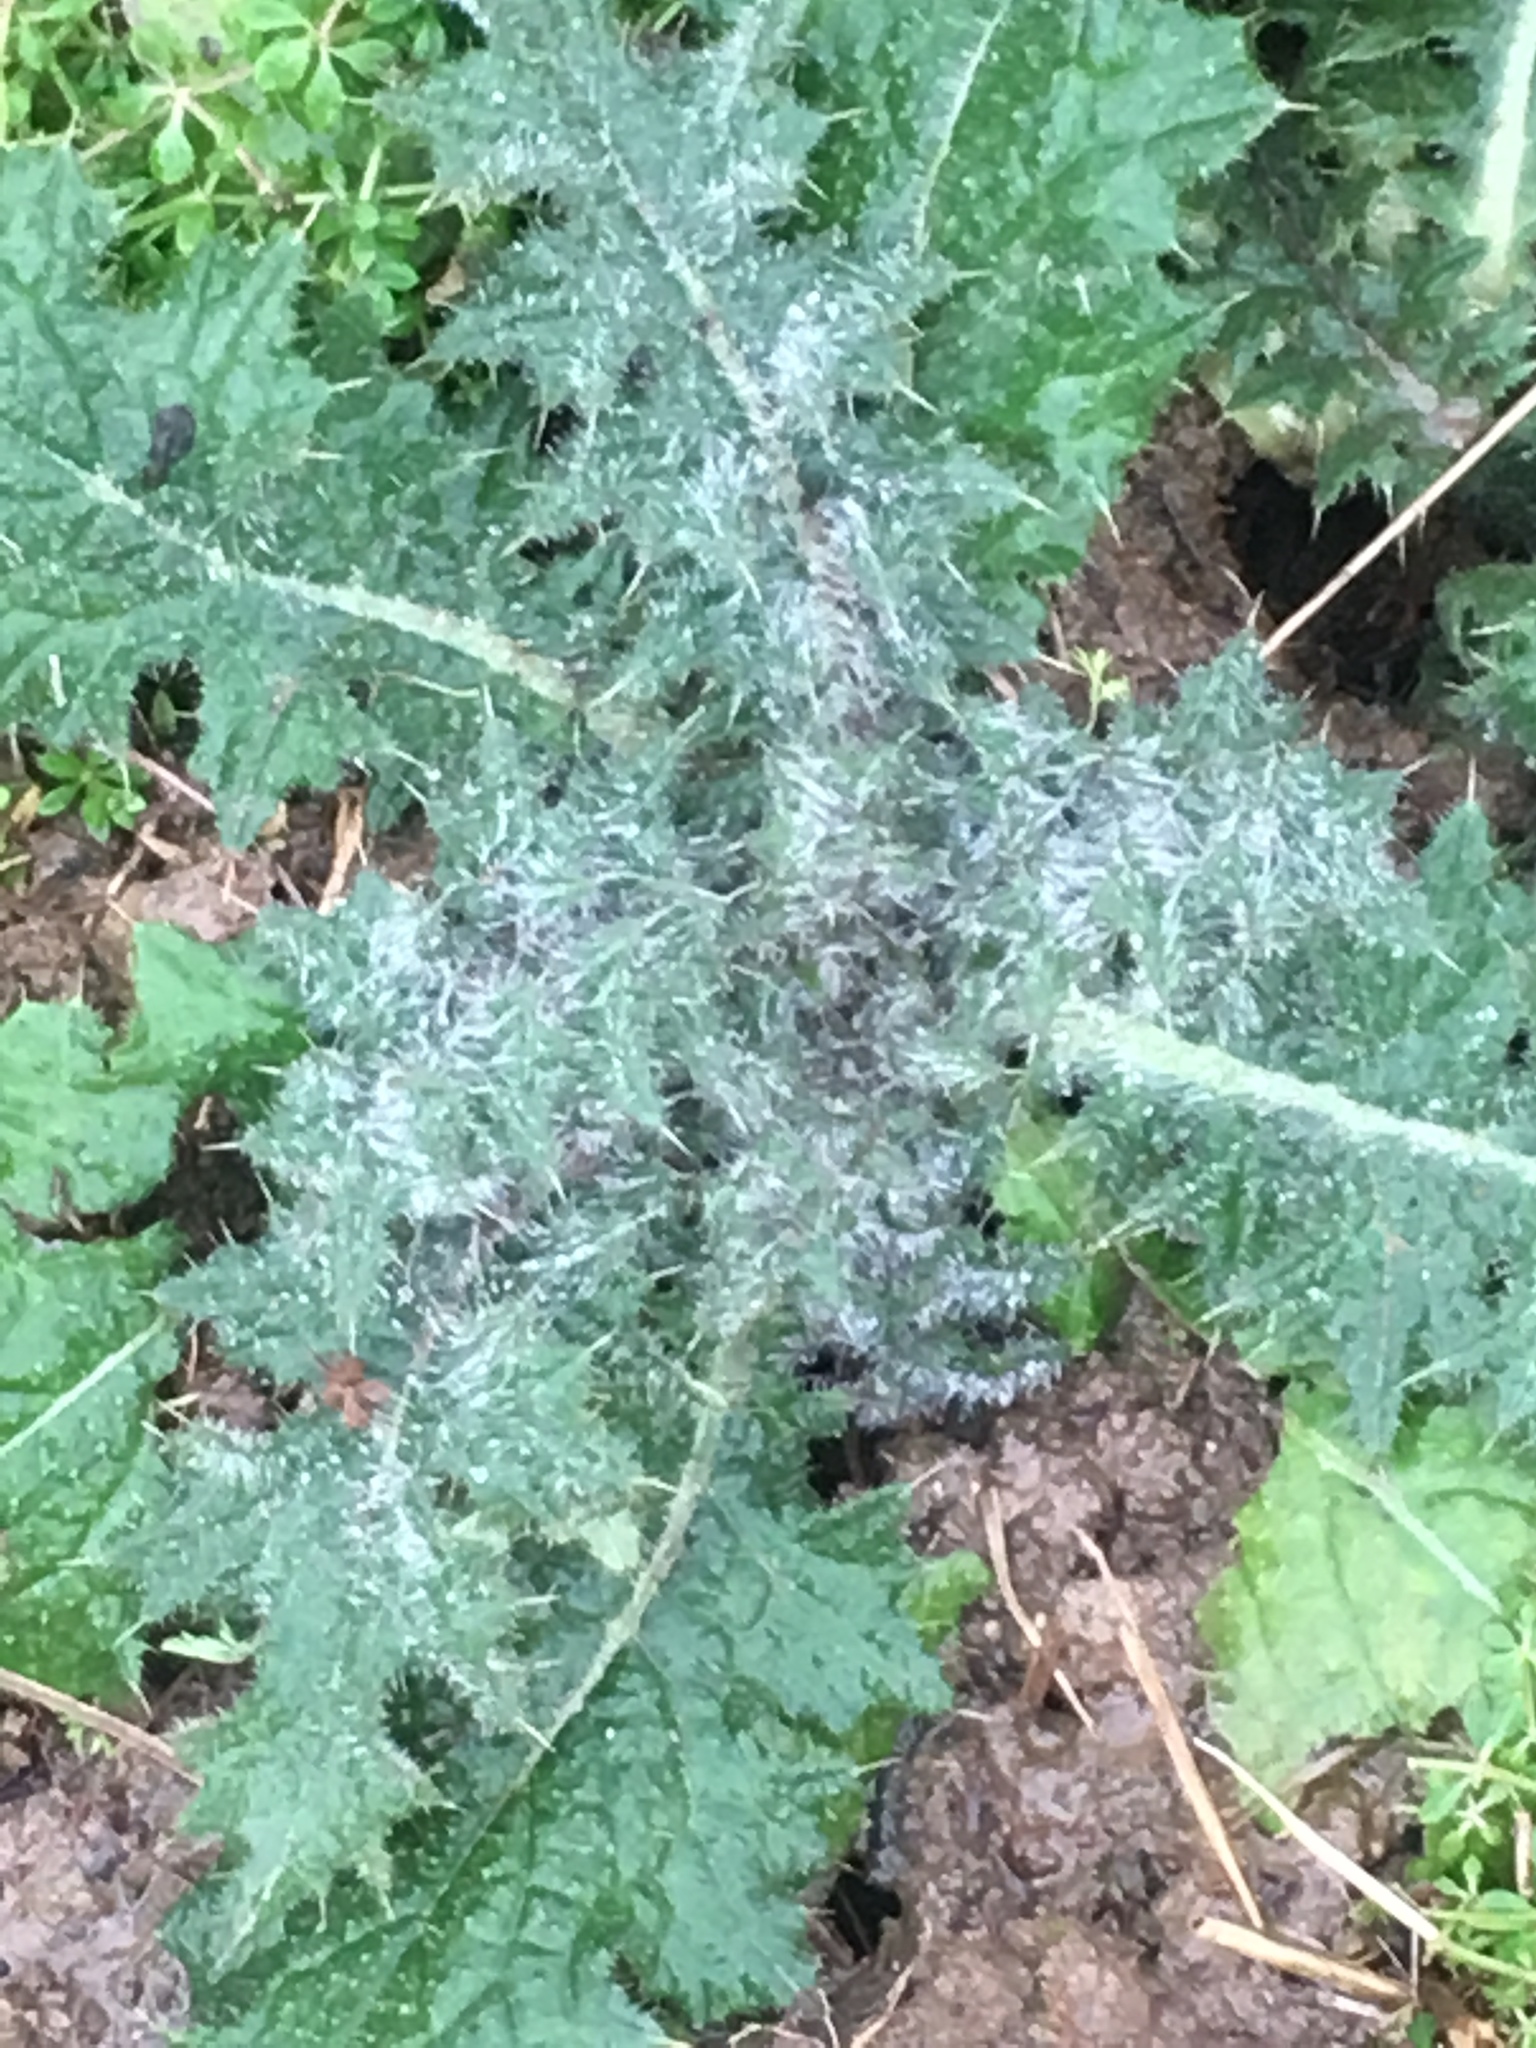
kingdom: Plantae
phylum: Tracheophyta
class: Magnoliopsida
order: Asterales
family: Asteraceae
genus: Cirsium
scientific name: Cirsium vulgare
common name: Bull thistle
